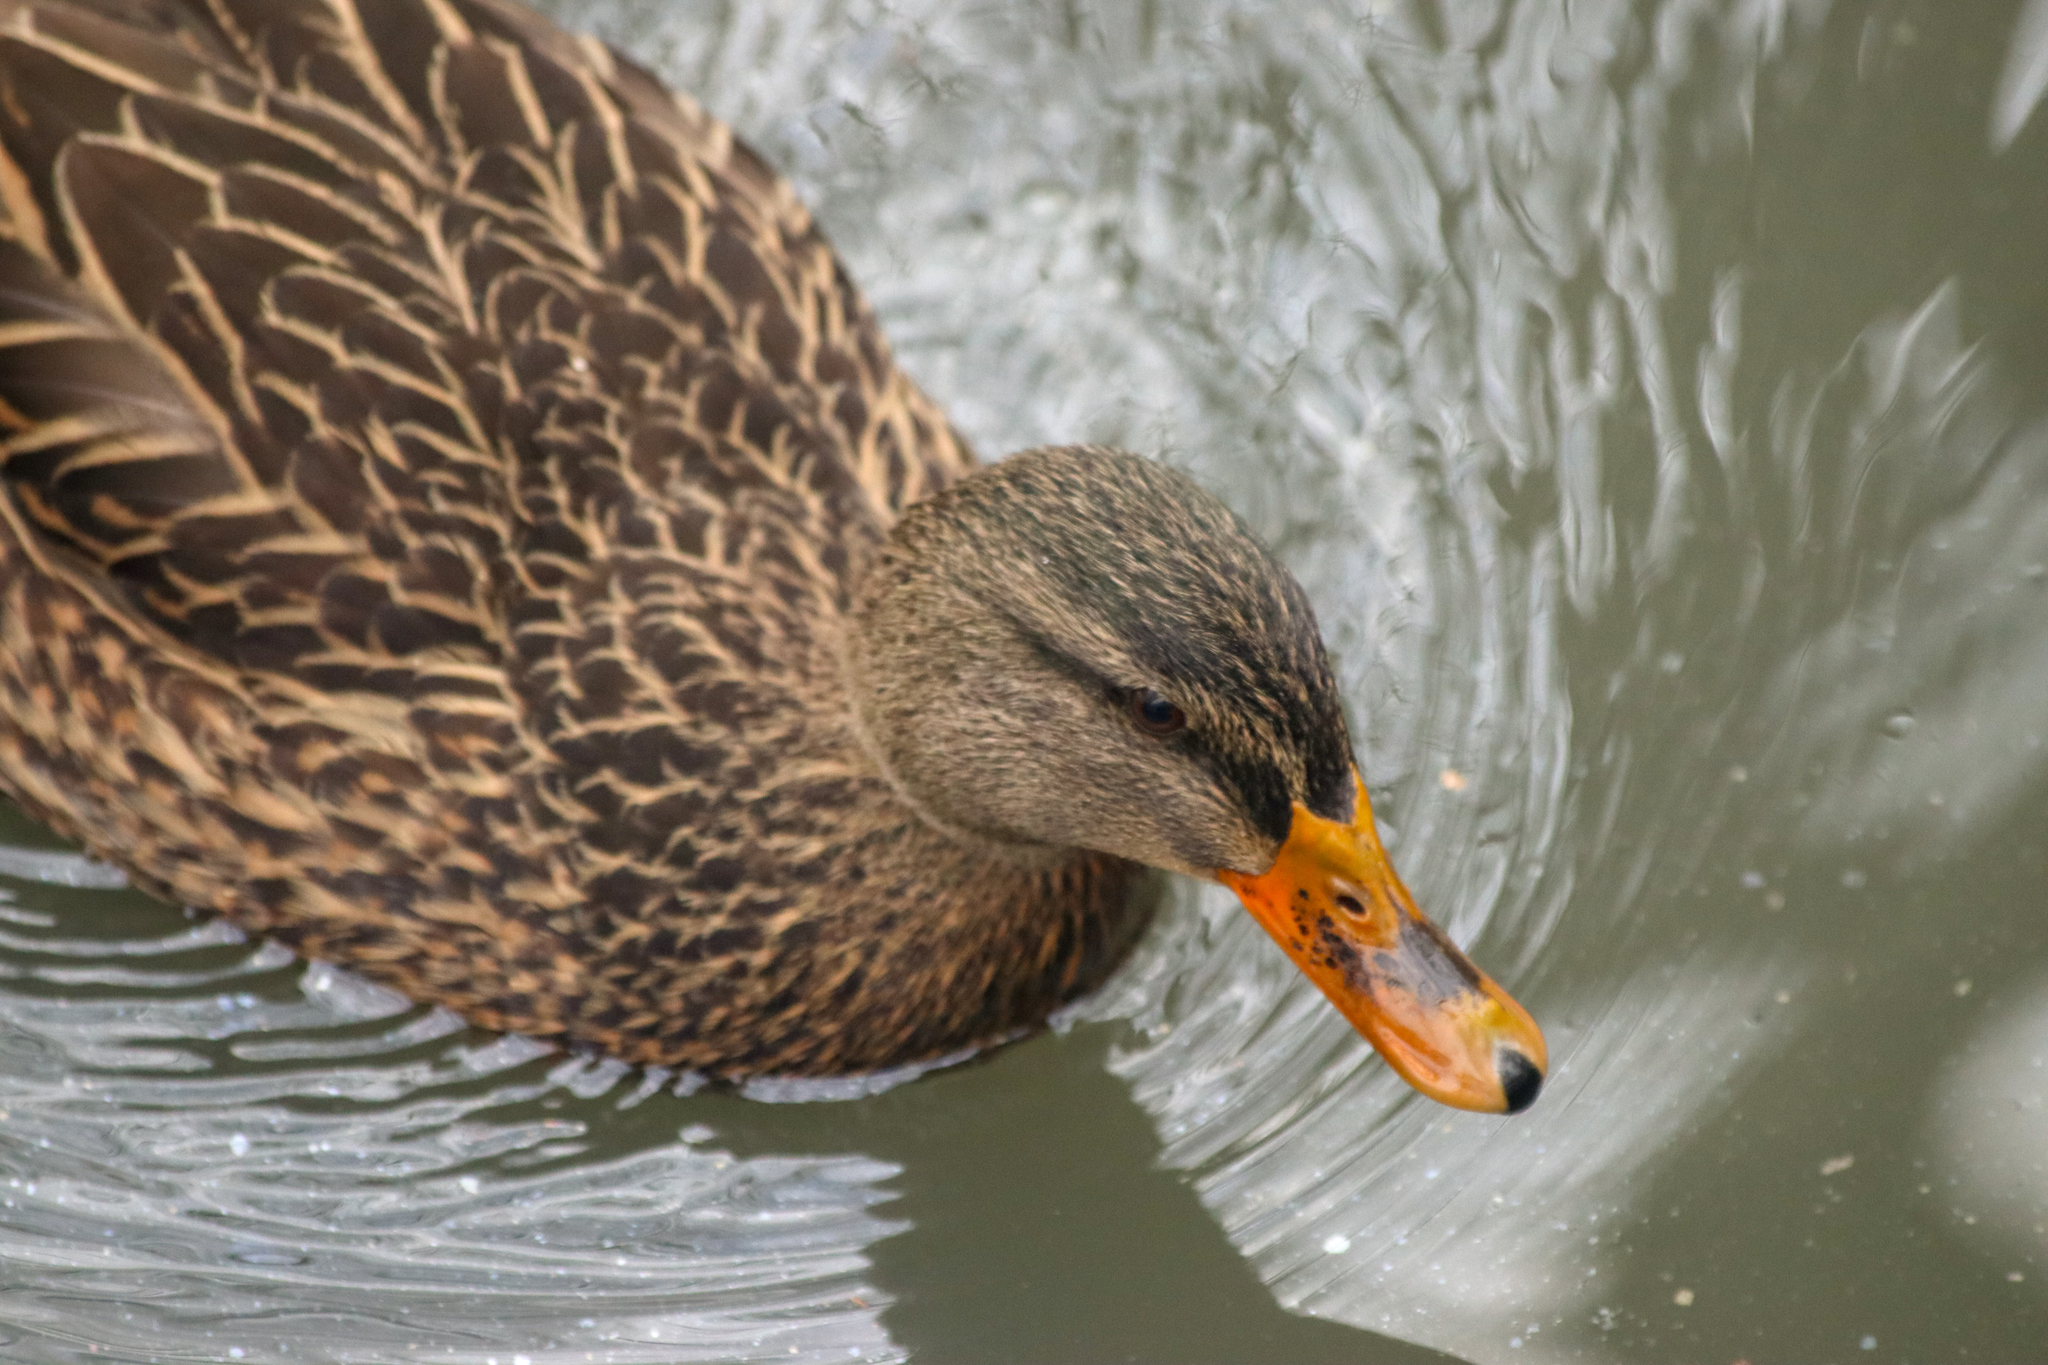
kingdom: Animalia
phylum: Chordata
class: Aves
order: Anseriformes
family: Anatidae
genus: Anas
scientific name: Anas platyrhynchos
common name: Mallard
